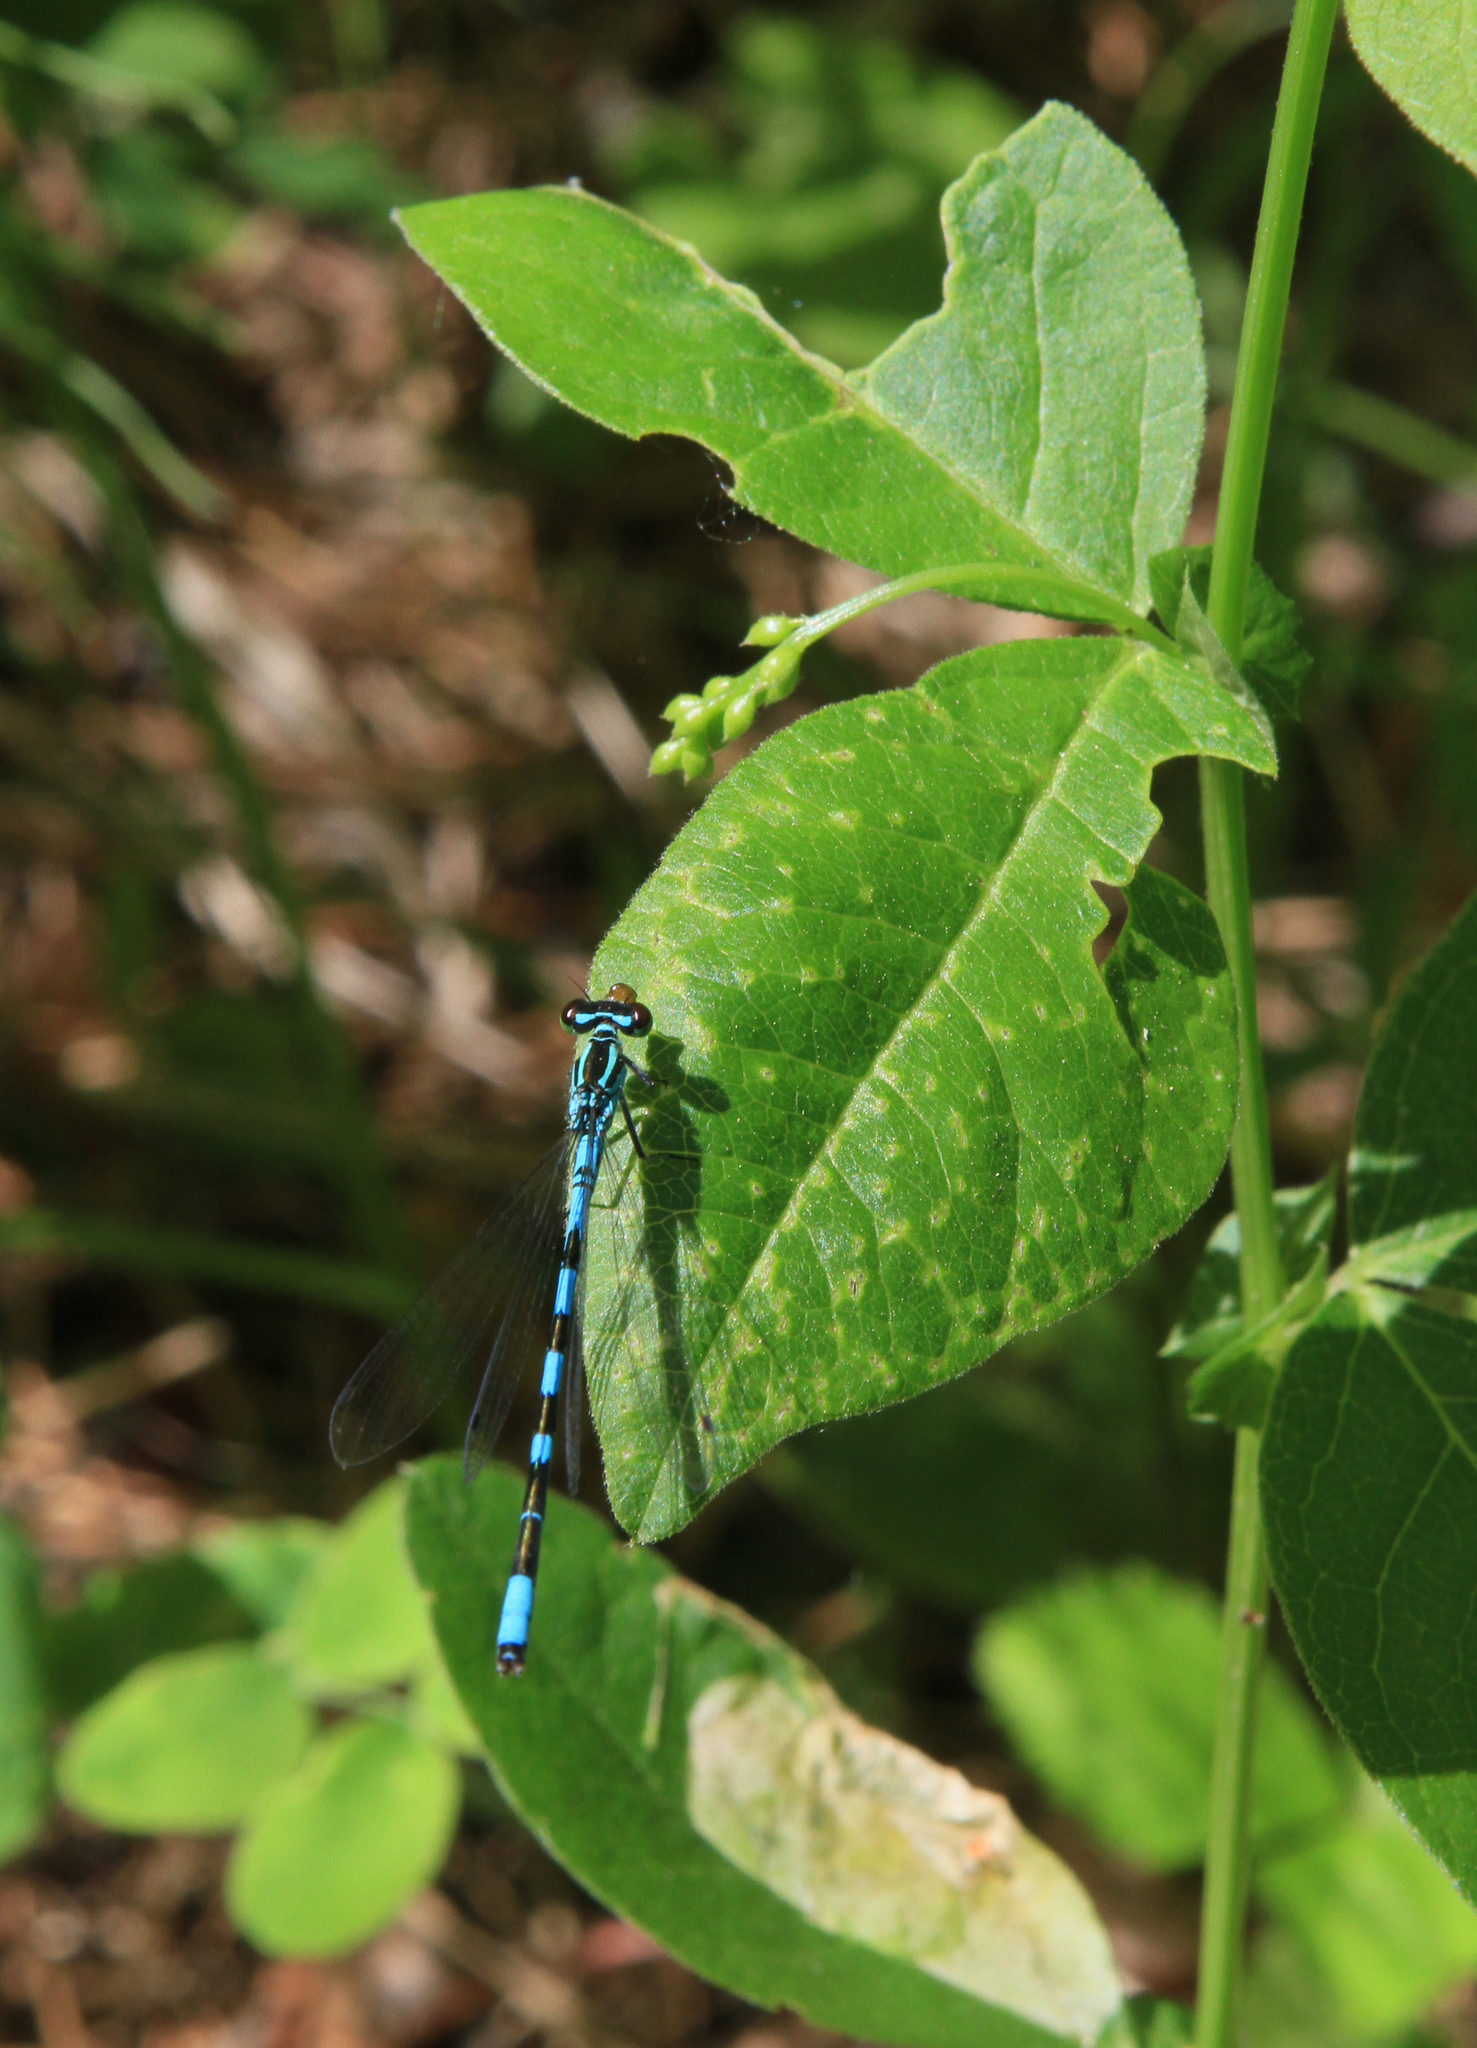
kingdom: Animalia
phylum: Arthropoda
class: Insecta
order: Odonata
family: Coenagrionidae
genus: Coenagrion
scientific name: Coenagrion hastulatum
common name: Spearhead bluet
